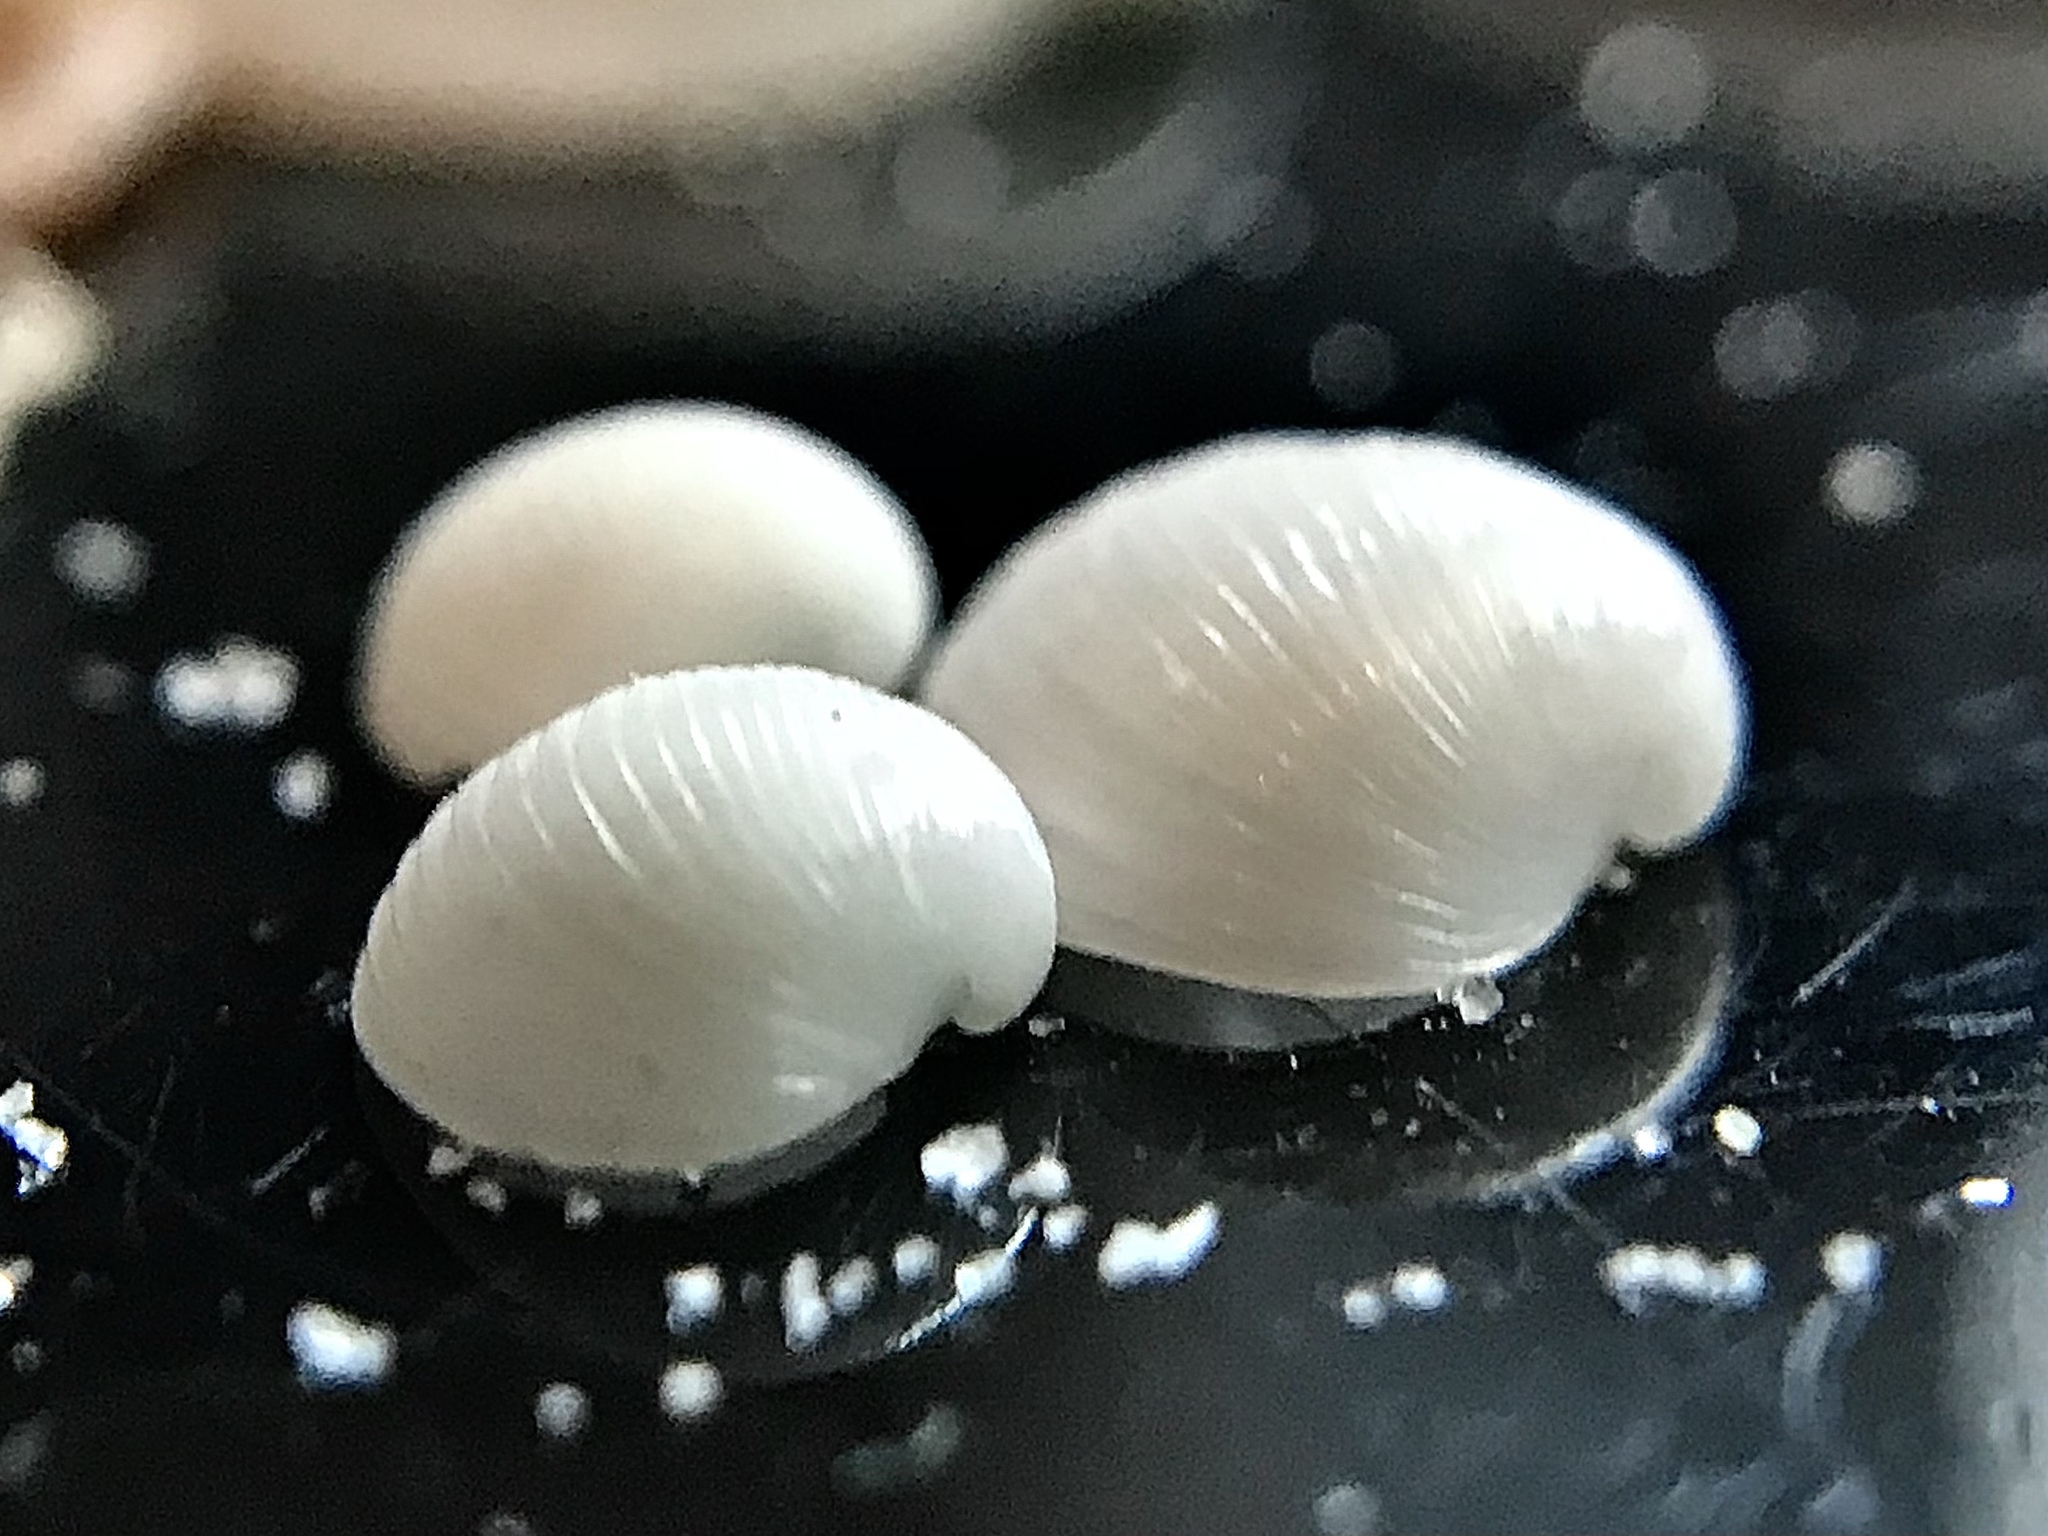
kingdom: Animalia
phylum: Mollusca
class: Bivalvia
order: Myida
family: Corbulidae
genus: Varicorbula
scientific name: Varicorbula limatula
